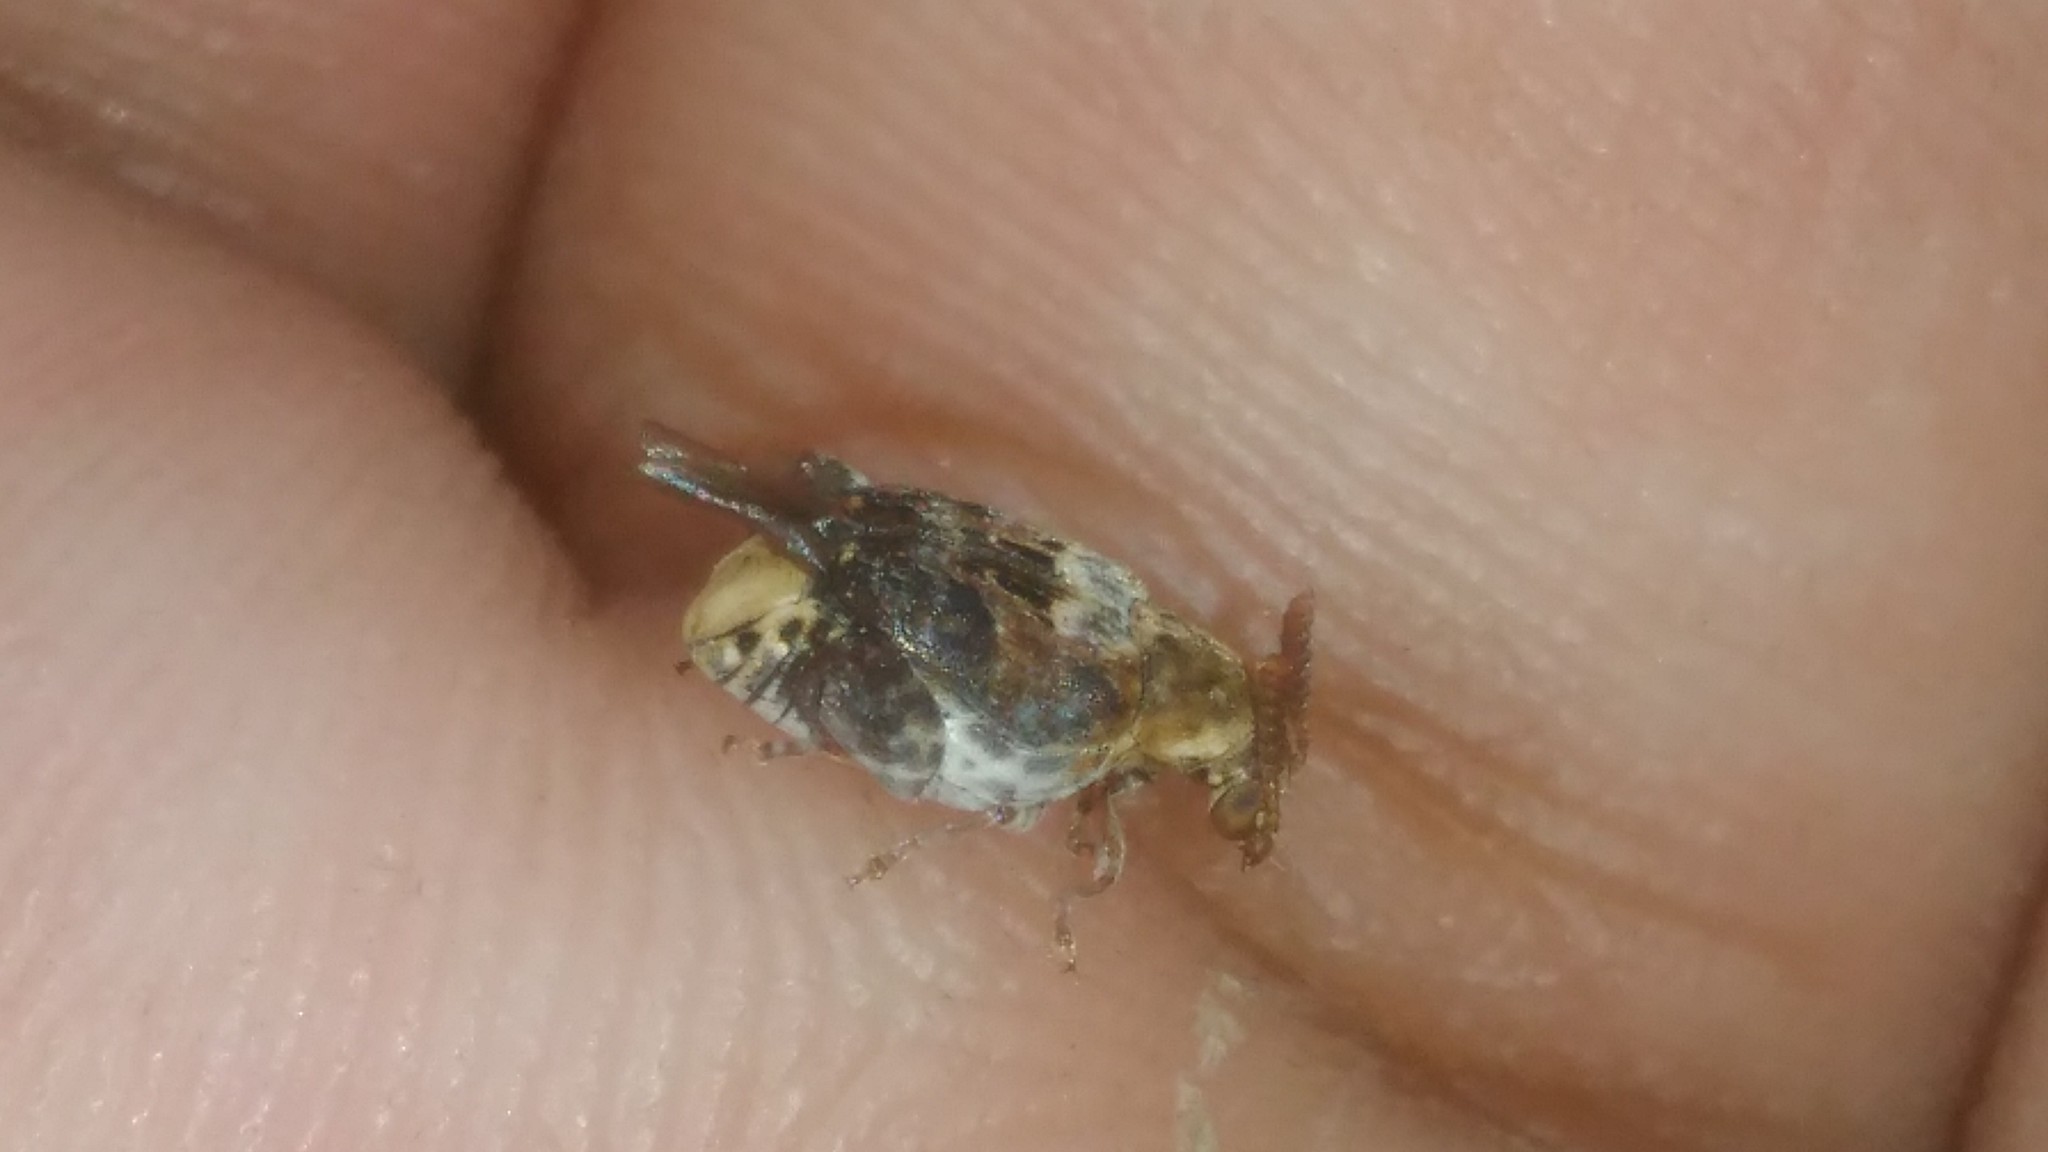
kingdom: Animalia
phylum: Arthropoda
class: Insecta
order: Coleoptera
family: Chrysomelidae
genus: Penthobruchus
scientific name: Penthobruchus
